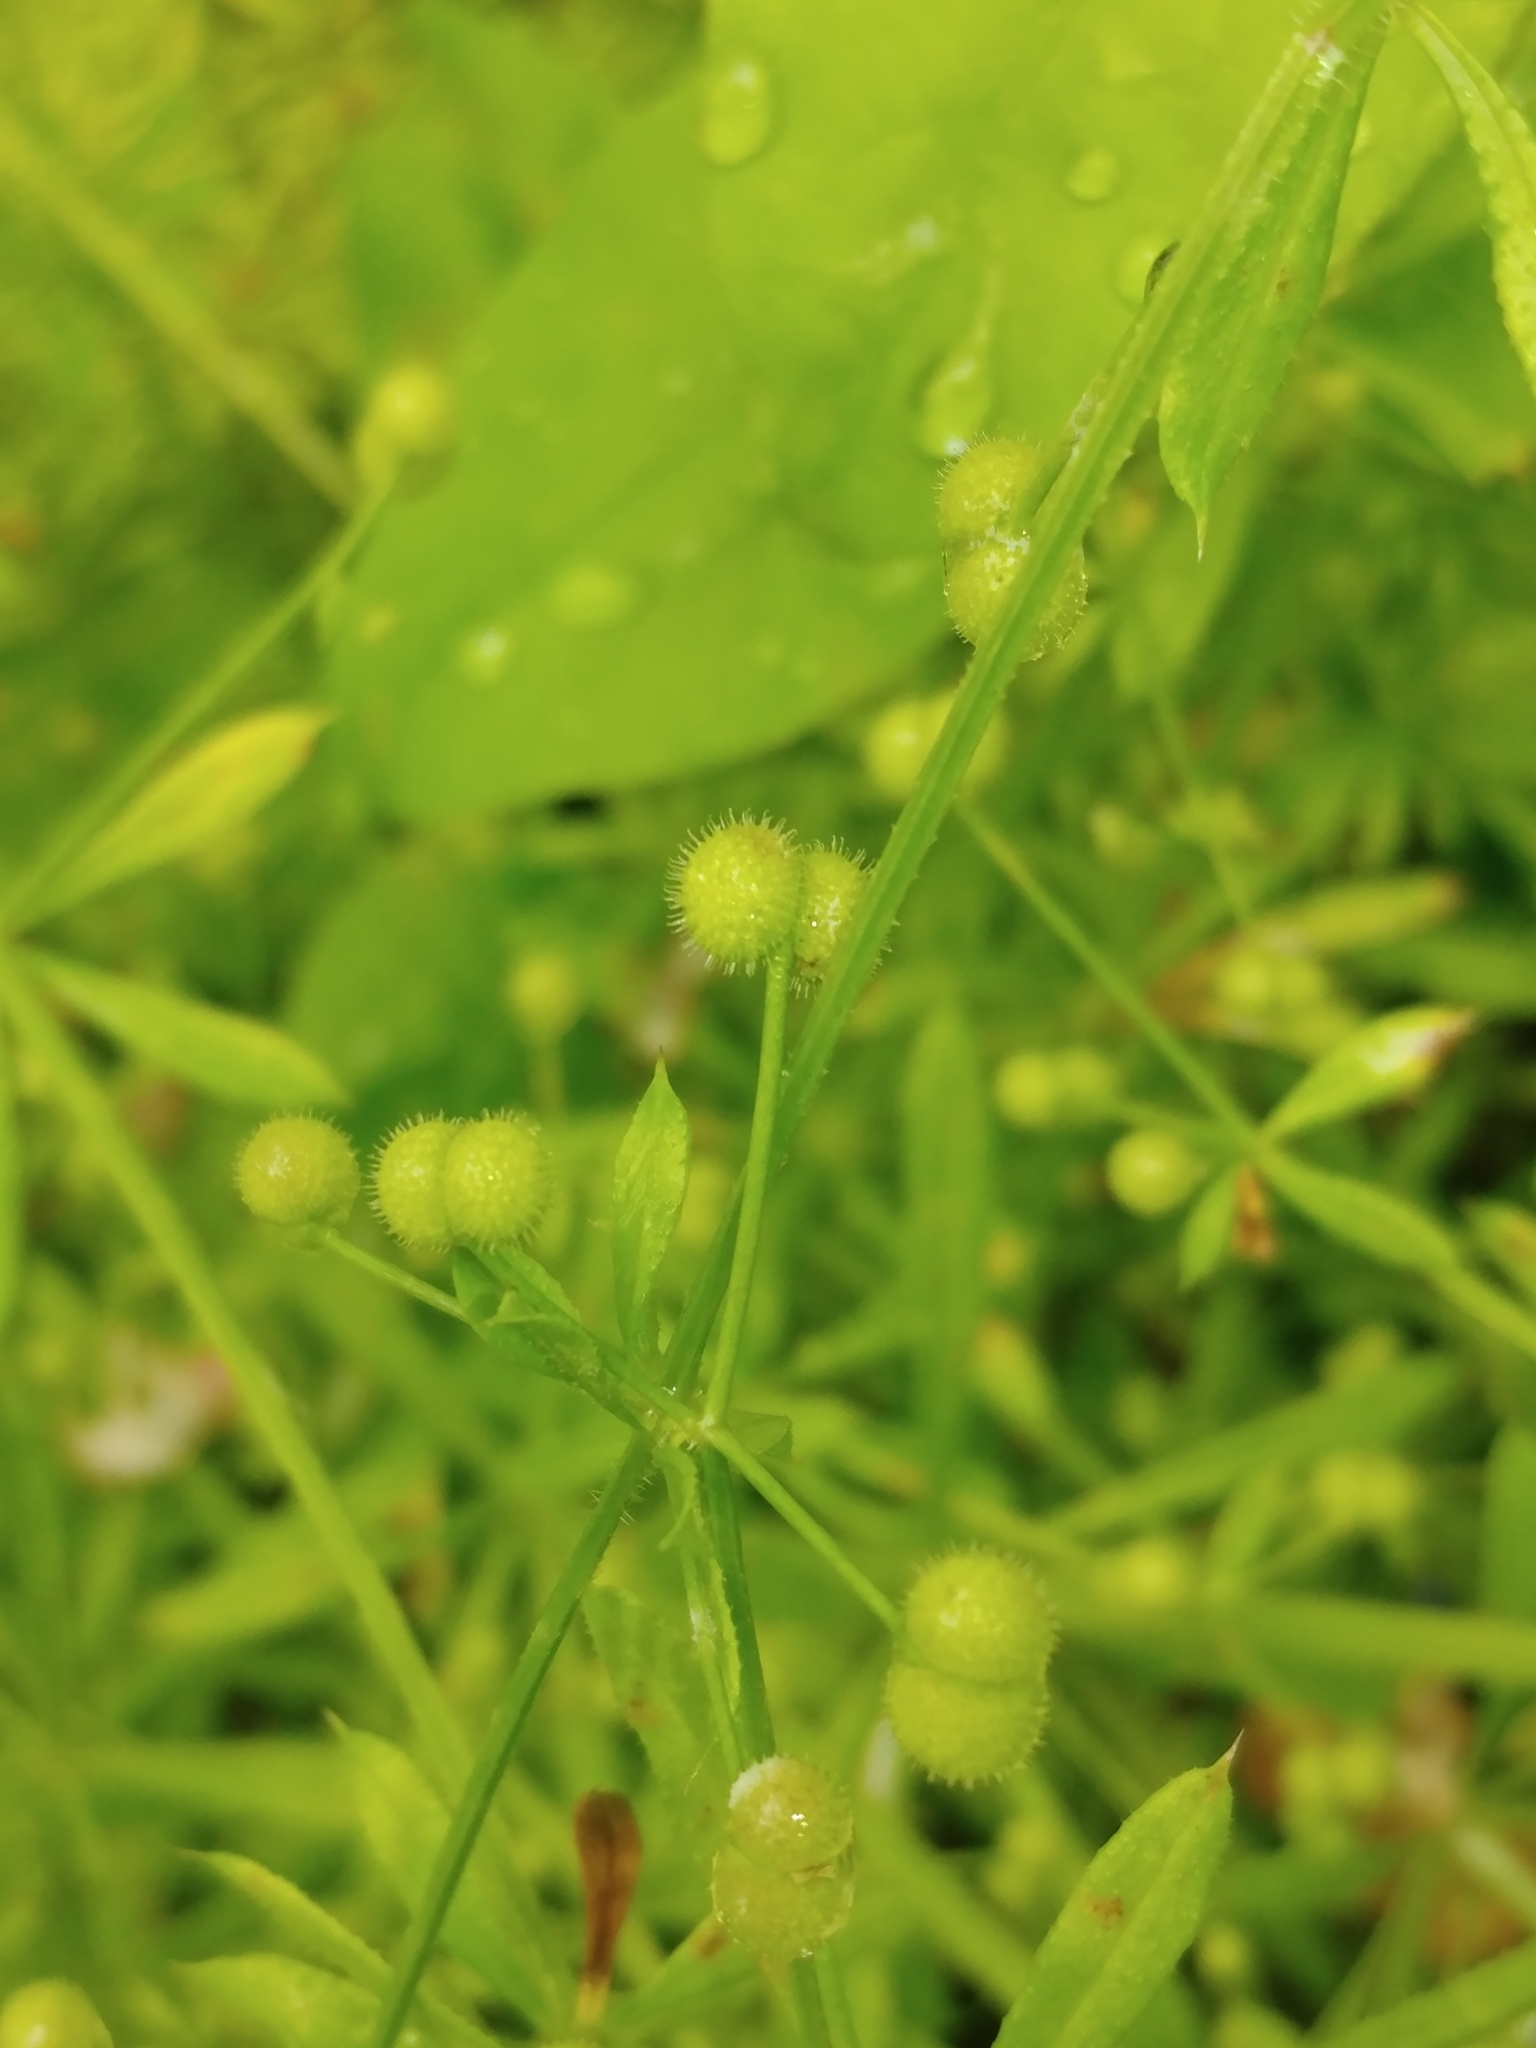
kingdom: Plantae
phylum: Tracheophyta
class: Magnoliopsida
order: Gentianales
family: Rubiaceae
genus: Galium
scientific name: Galium aparine
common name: Cleavers
